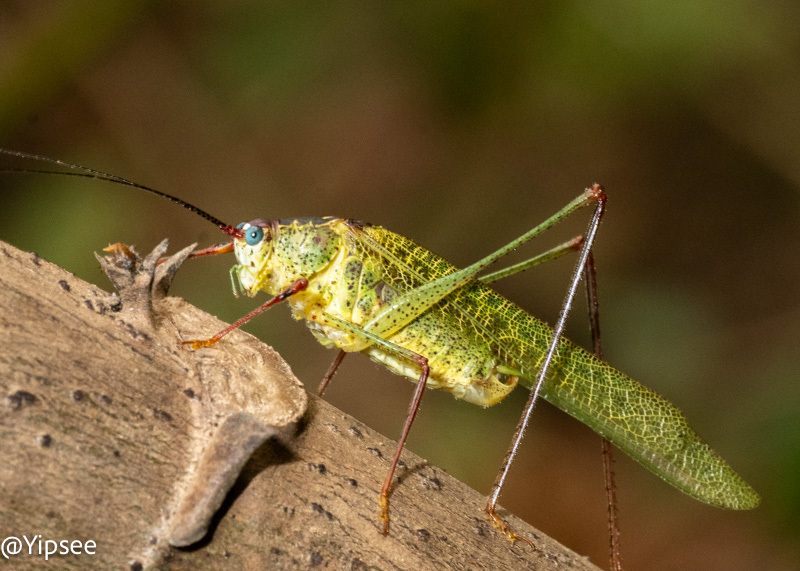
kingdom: Animalia
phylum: Arthropoda
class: Insecta
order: Orthoptera
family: Tettigoniidae
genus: Letana
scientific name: Letana rubescens
